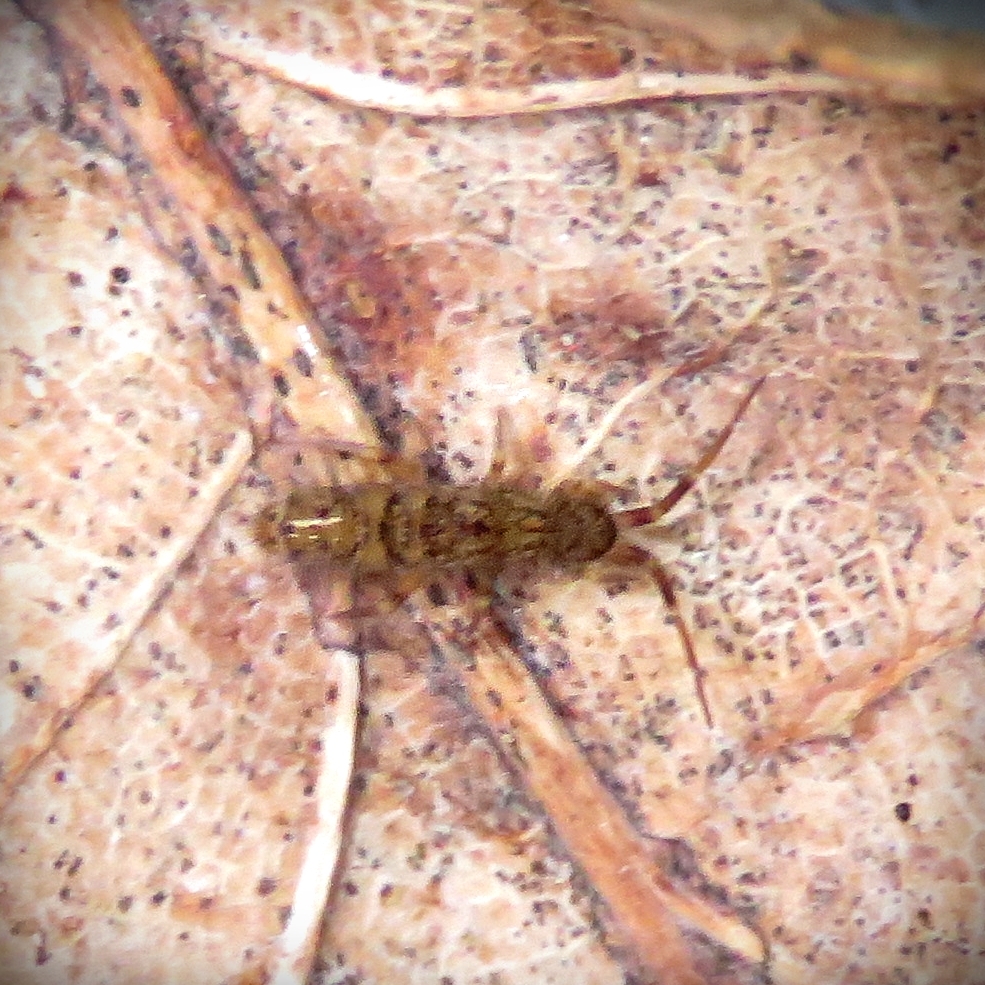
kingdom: Animalia
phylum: Arthropoda
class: Collembola
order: Entomobryomorpha
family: Orchesellidae
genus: Orchesella
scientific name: Orchesella villosa
